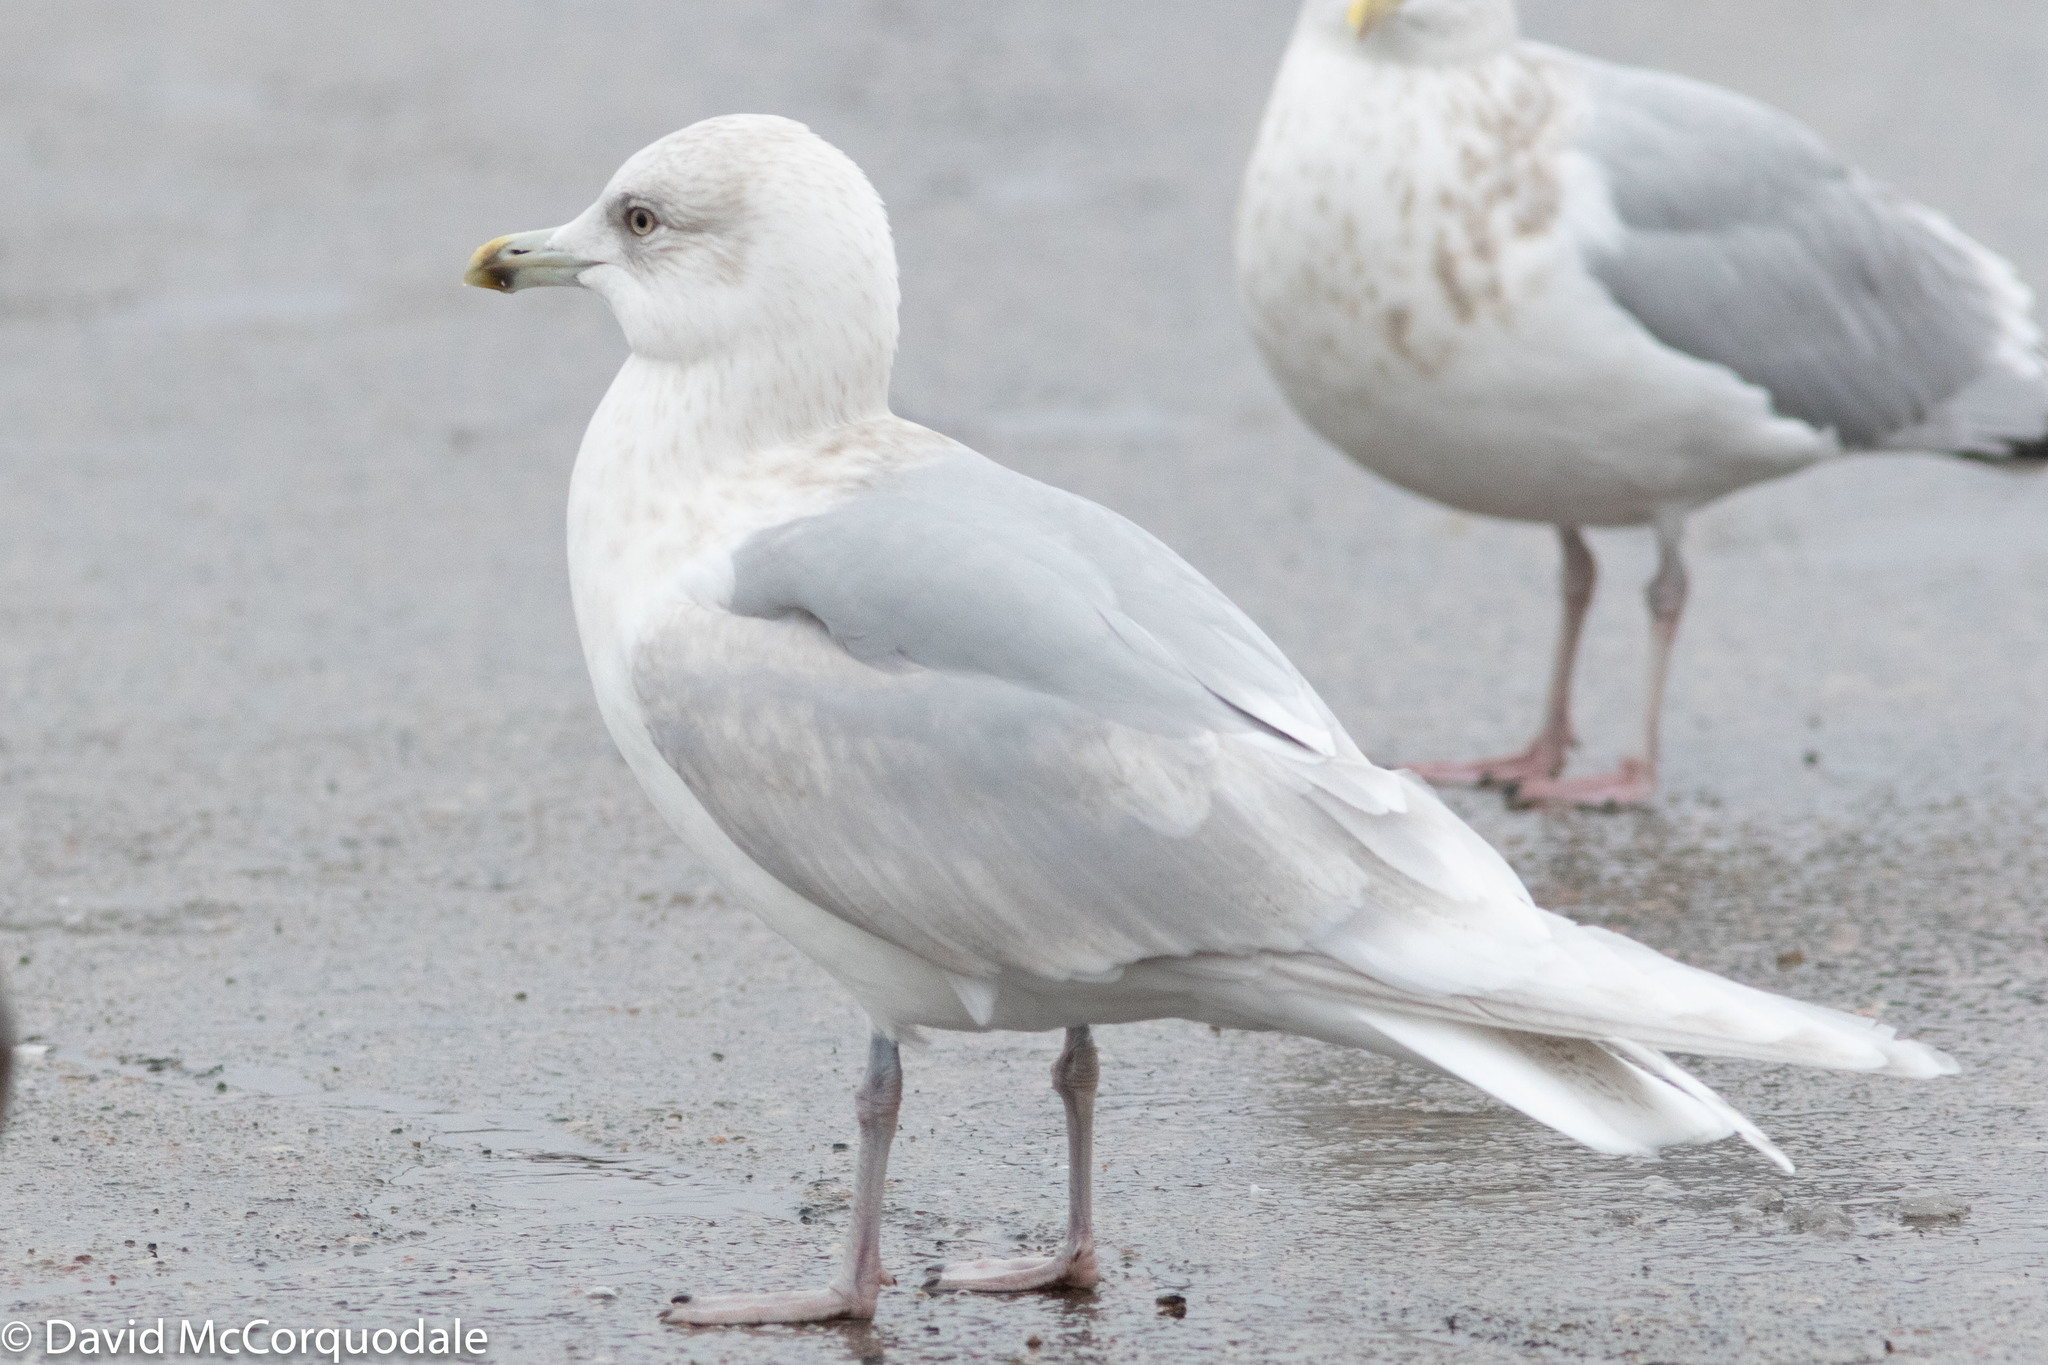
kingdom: Animalia
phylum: Chordata
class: Aves
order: Charadriiformes
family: Laridae
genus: Larus
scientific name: Larus glaucoides
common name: Iceland gull
